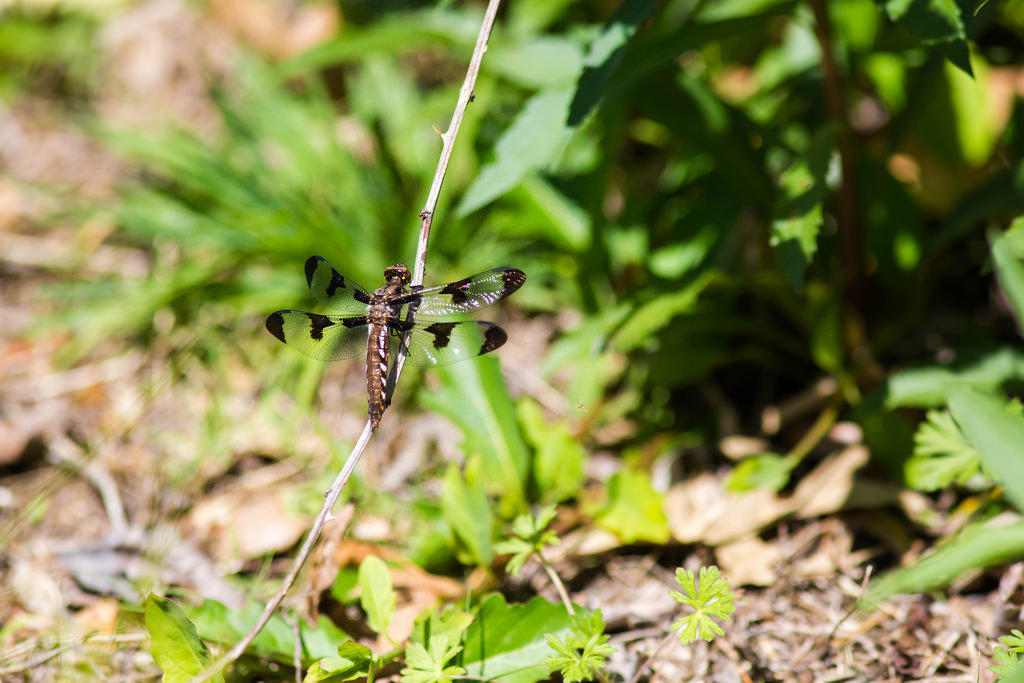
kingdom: Animalia
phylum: Arthropoda
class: Insecta
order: Odonata
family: Libellulidae
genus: Plathemis
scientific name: Plathemis lydia
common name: Common whitetail
